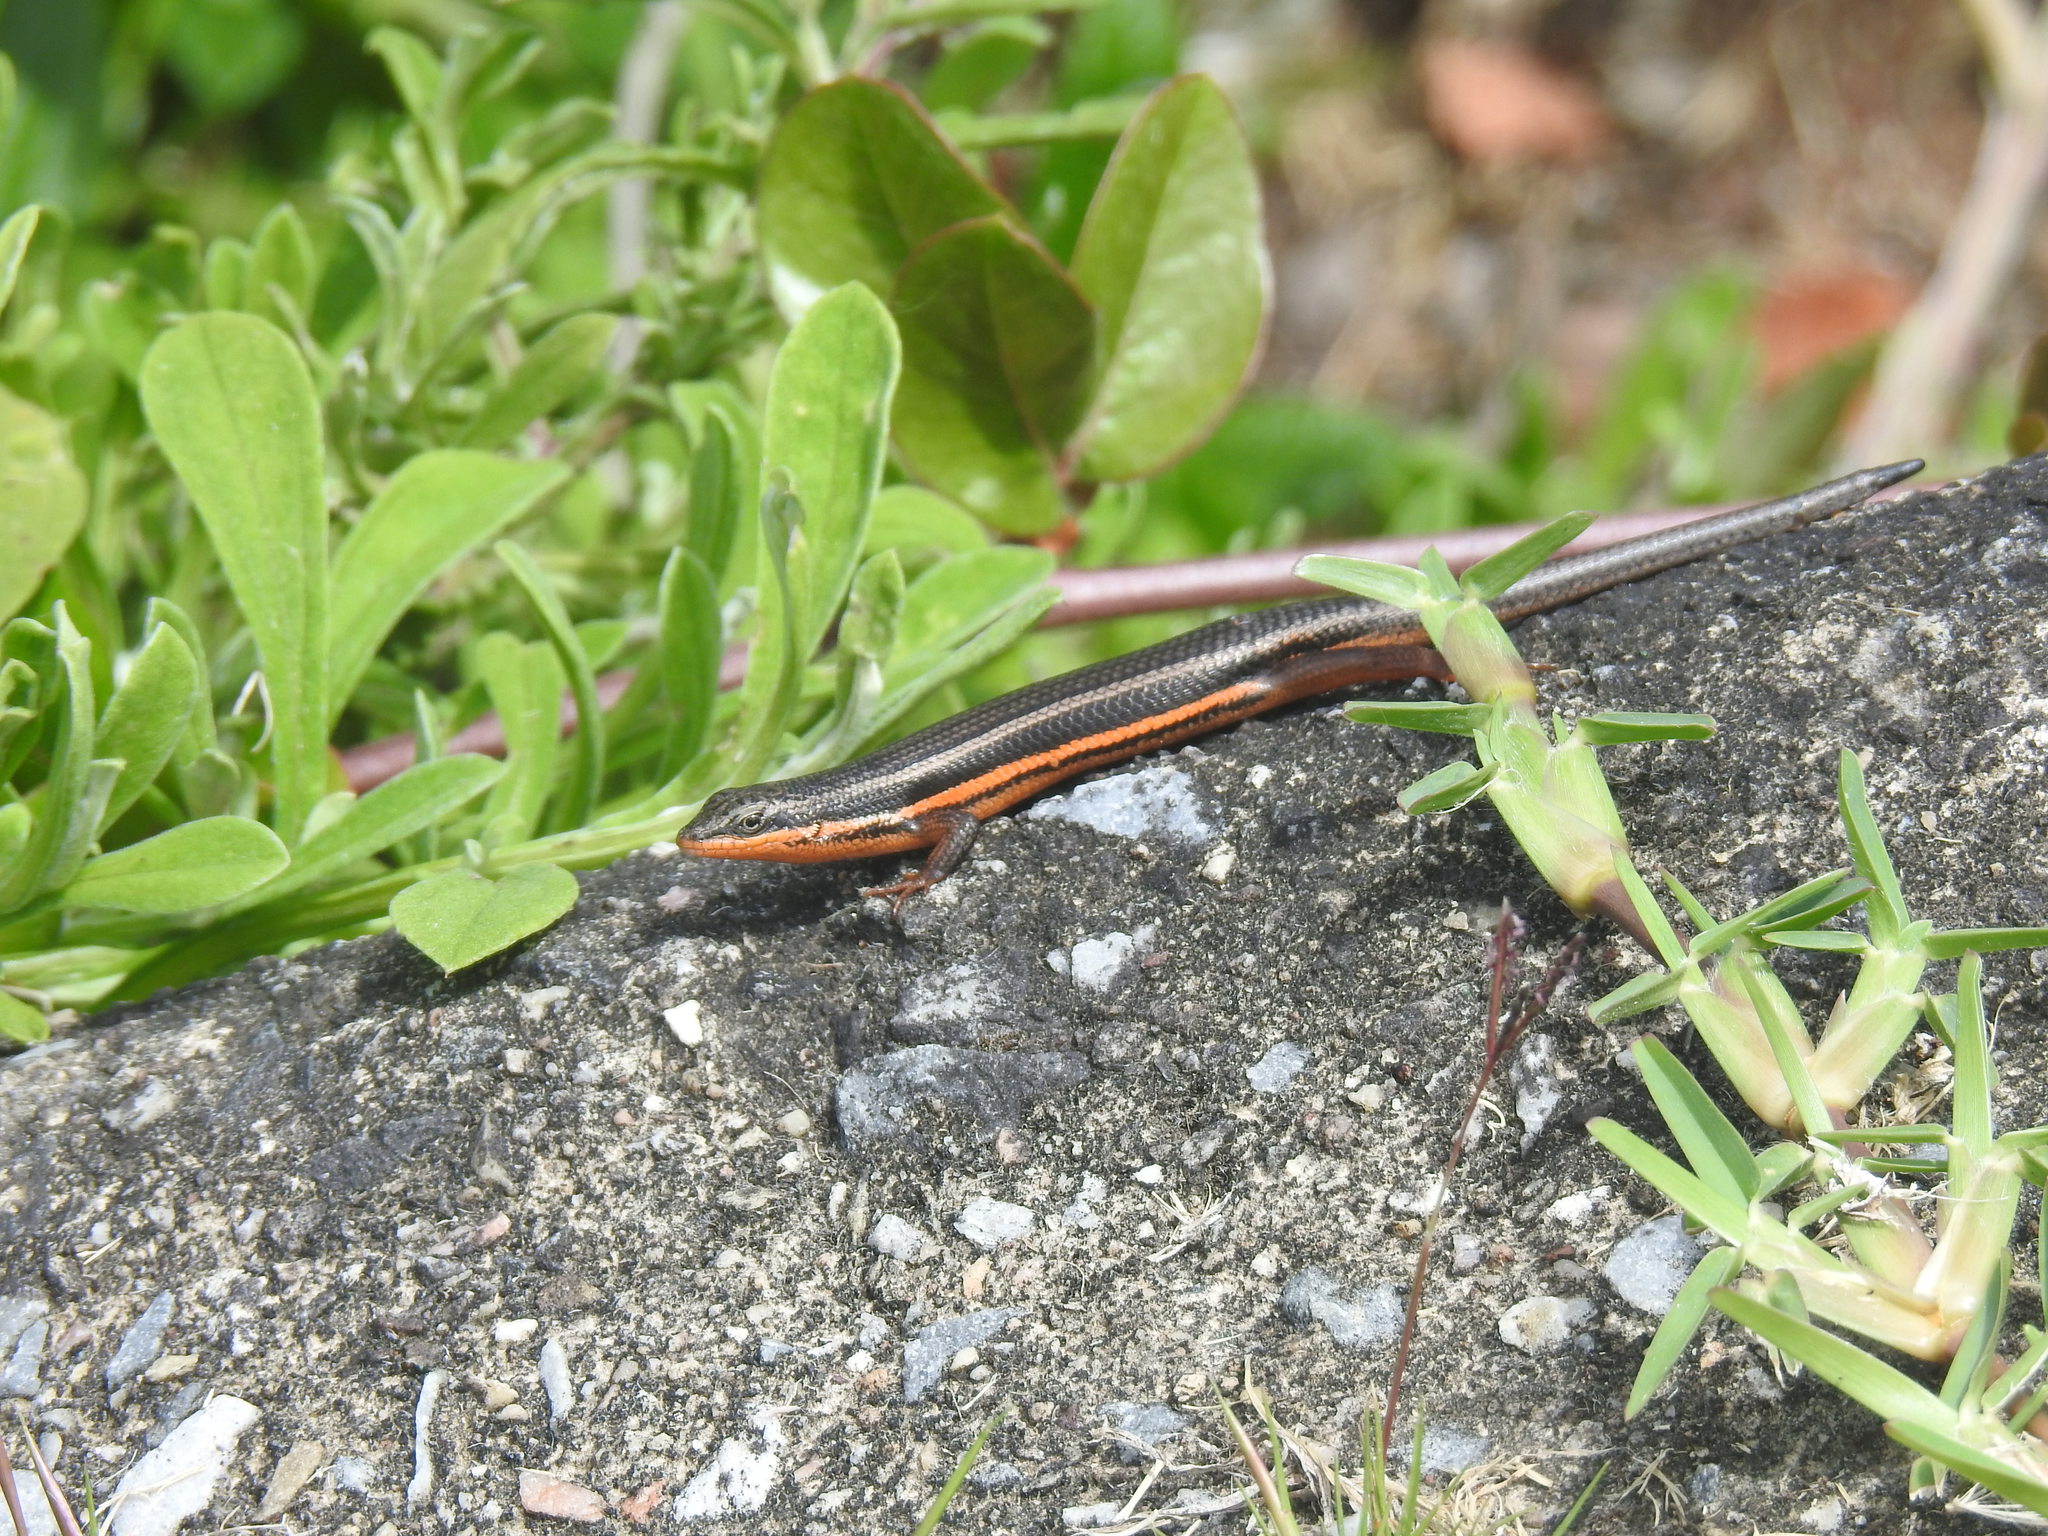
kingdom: Animalia
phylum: Chordata
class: Squamata
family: Scincidae
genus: Trachylepis
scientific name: Trachylepis homalocephala
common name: Red-sided skink
